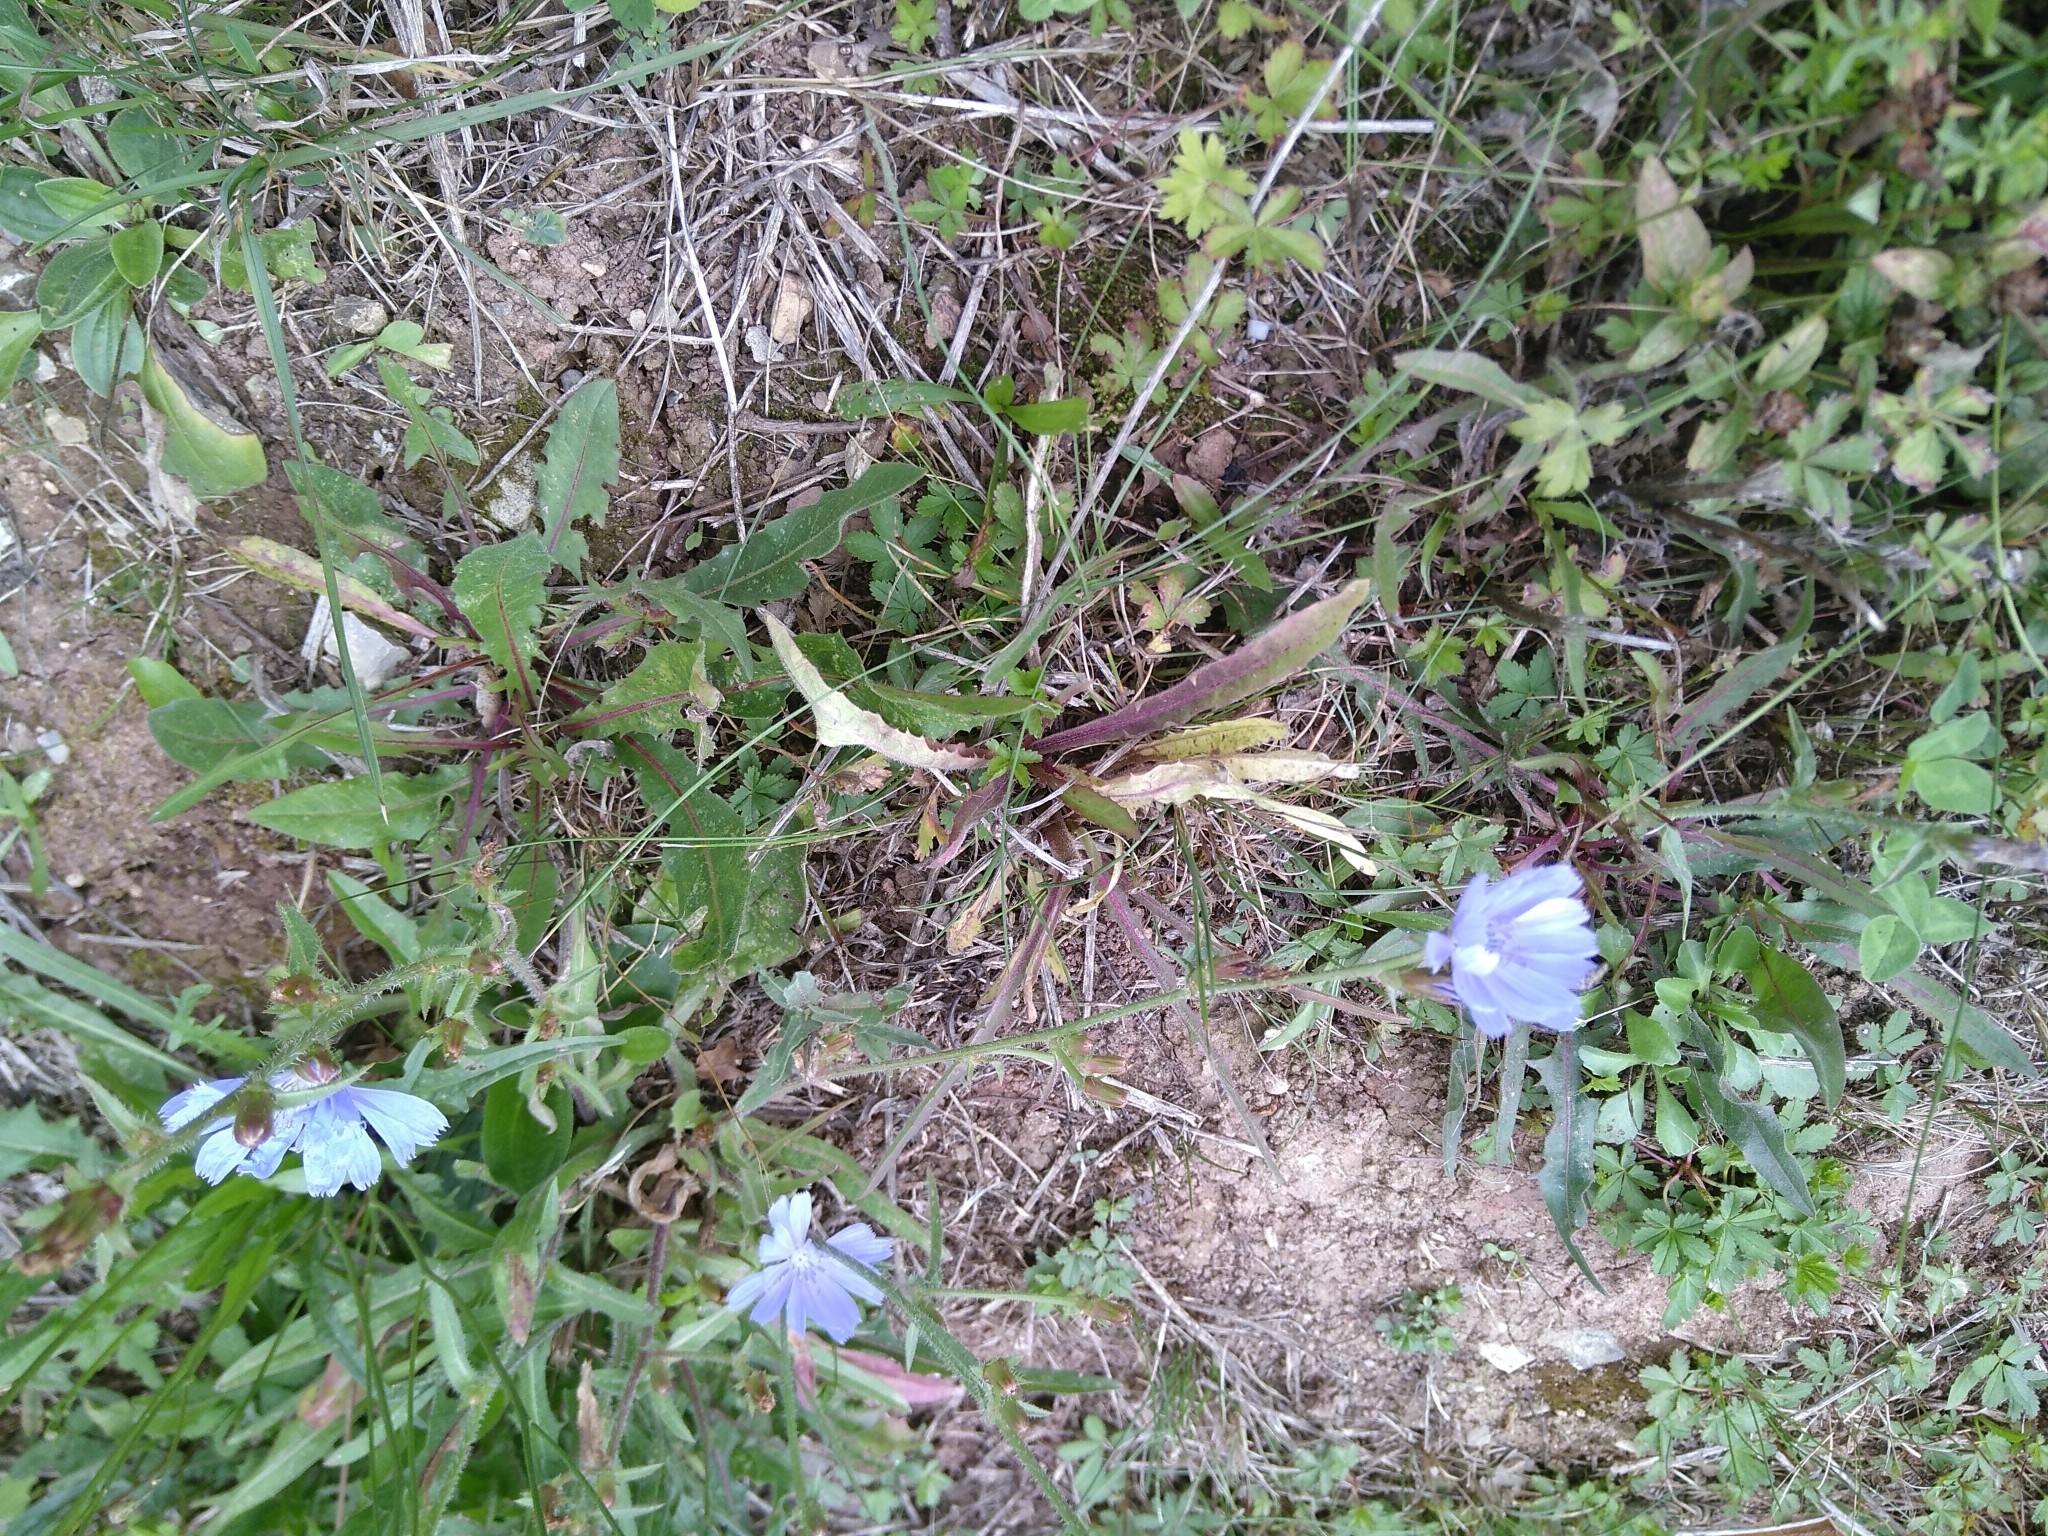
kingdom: Plantae
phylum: Tracheophyta
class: Magnoliopsida
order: Asterales
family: Asteraceae
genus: Cichorium
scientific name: Cichorium intybus
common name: Chicory
